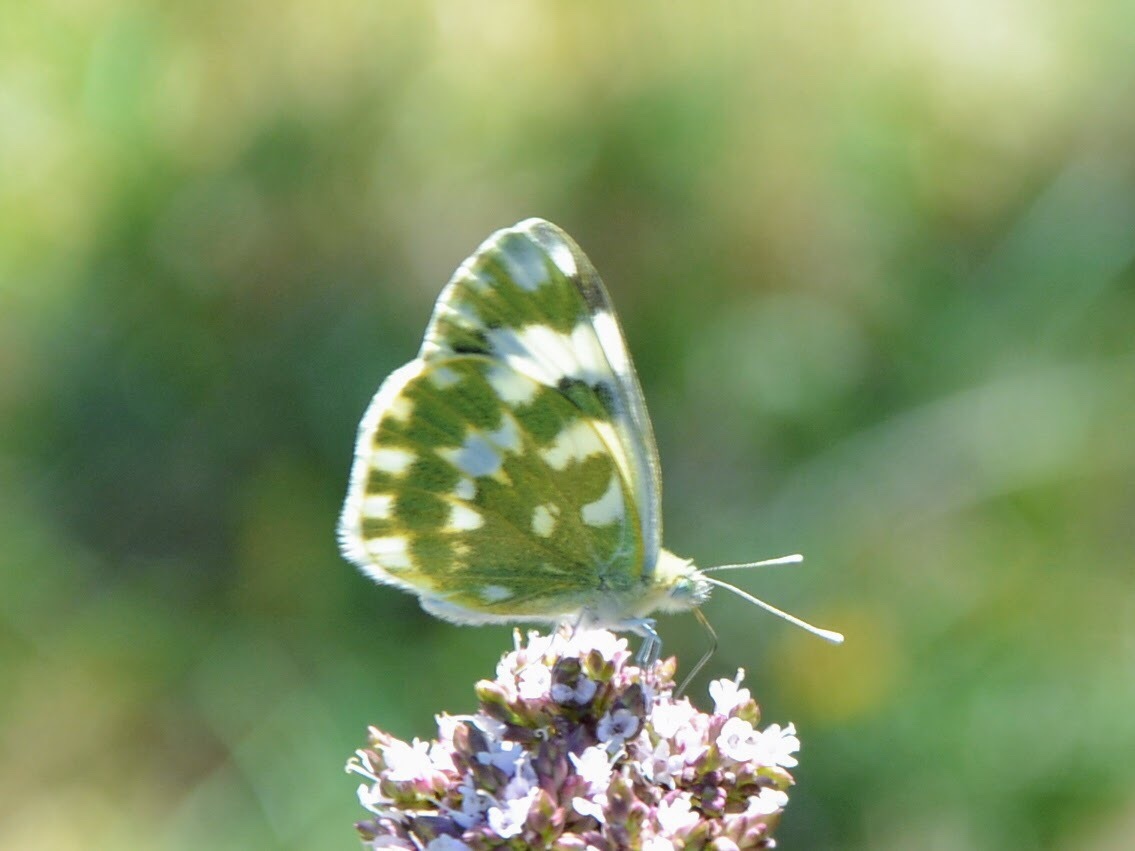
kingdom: Animalia
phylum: Arthropoda
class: Insecta
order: Lepidoptera
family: Pieridae
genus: Pontia
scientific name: Pontia edusa
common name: Eastern bath white
